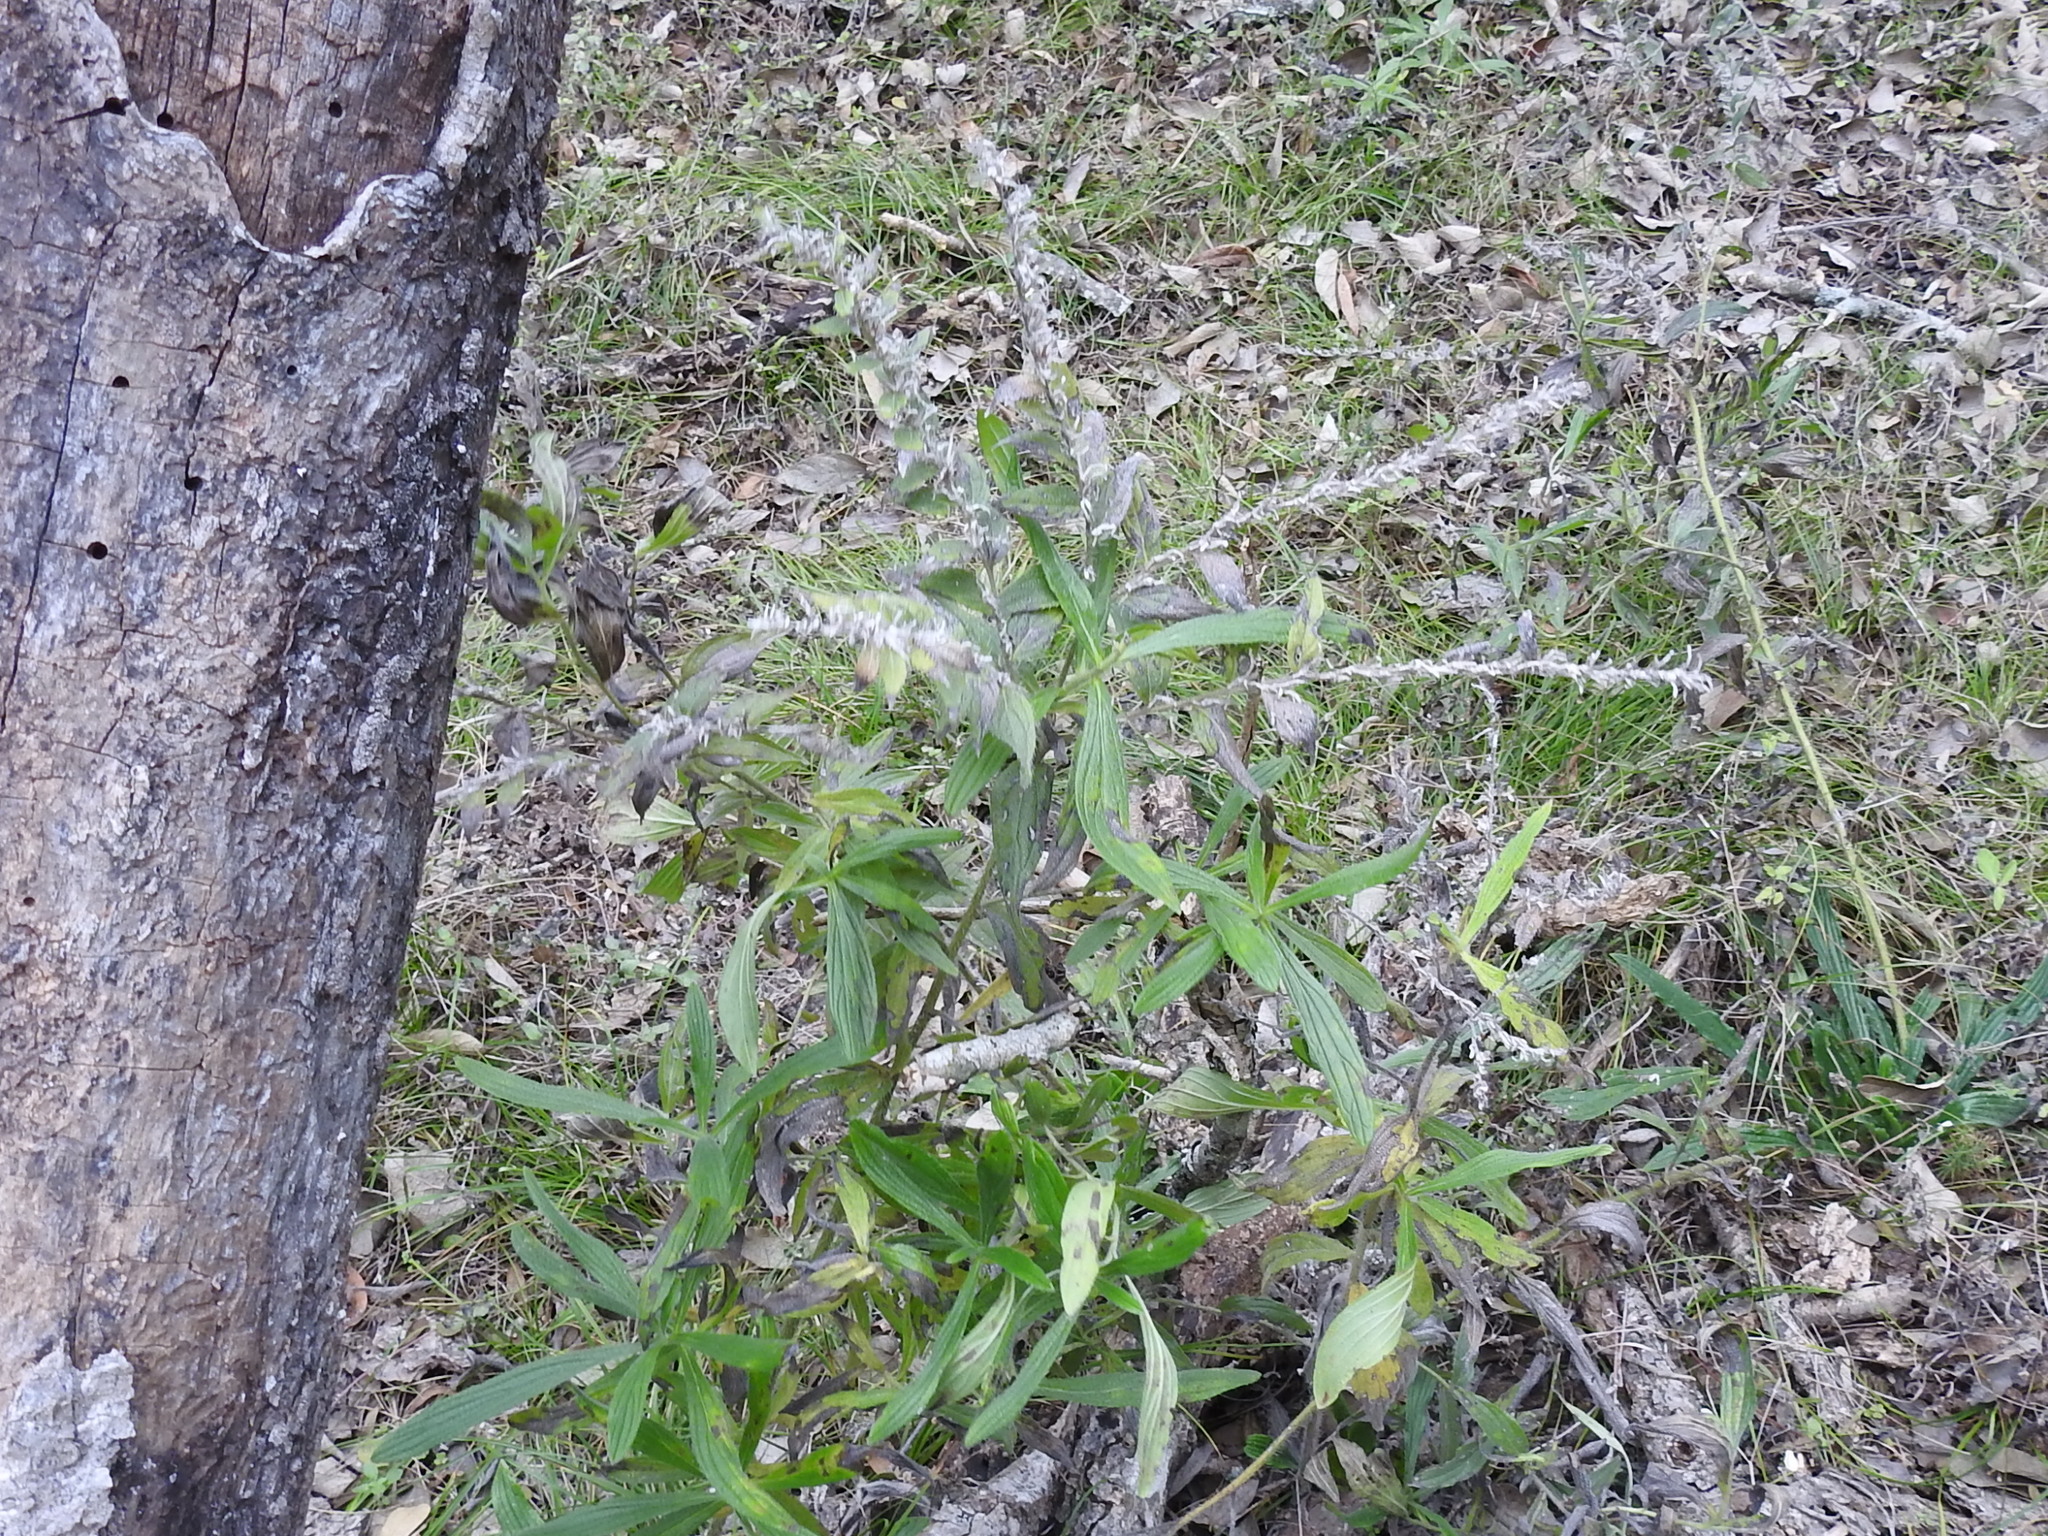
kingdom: Plantae
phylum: Tracheophyta
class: Magnoliopsida
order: Boraginales
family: Boraginaceae
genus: Lithospermum
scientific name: Lithospermum caroliniense
